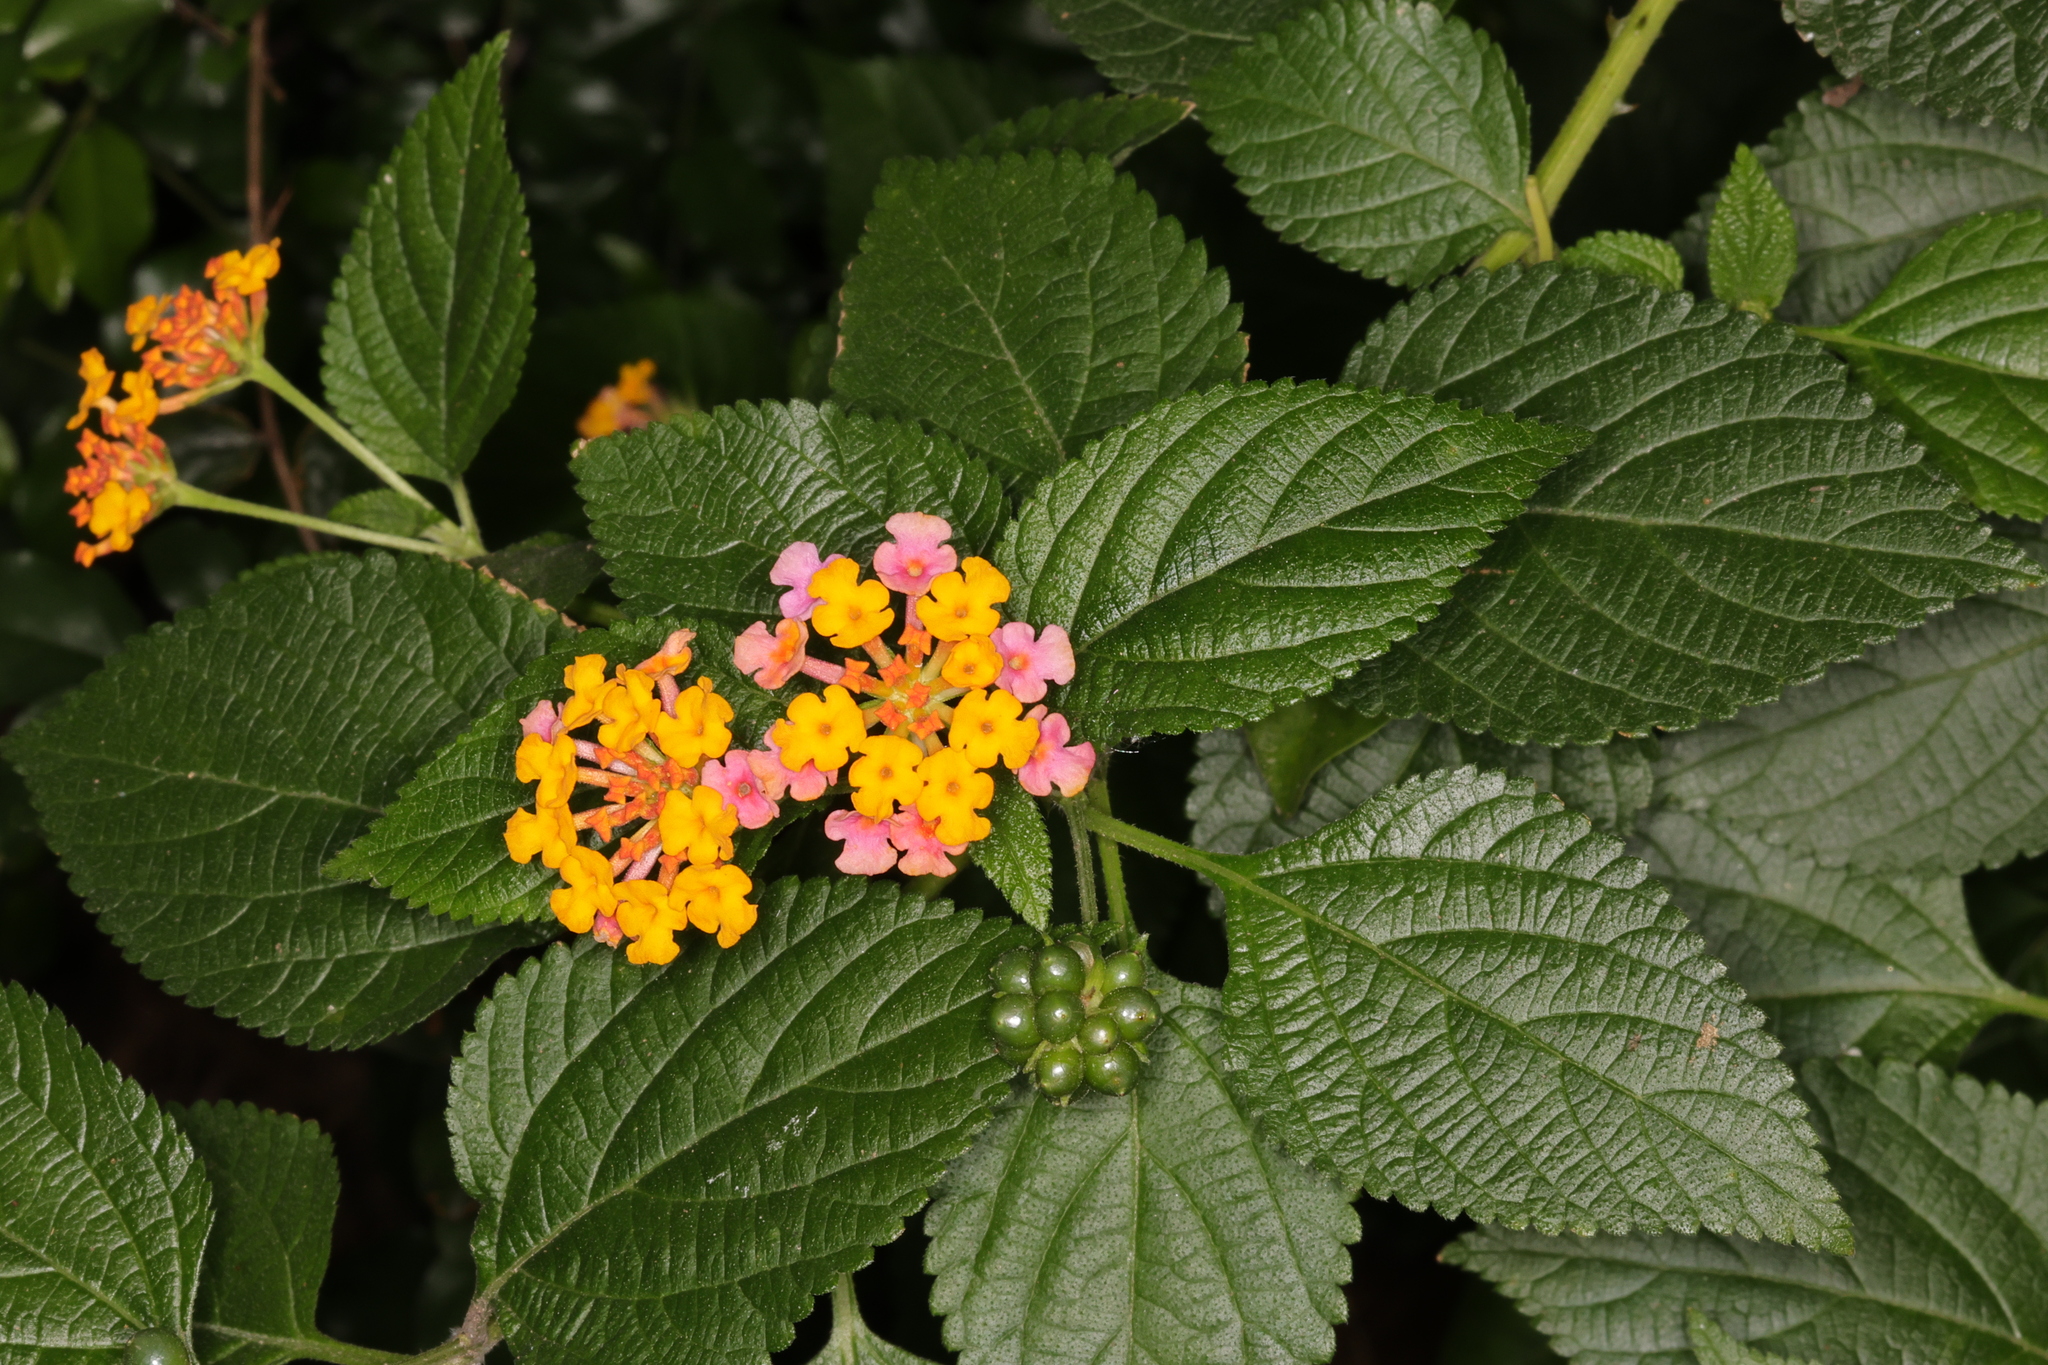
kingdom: Plantae
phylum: Tracheophyta
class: Magnoliopsida
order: Lamiales
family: Verbenaceae
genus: Lantana
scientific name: Lantana camara
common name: Lantana
